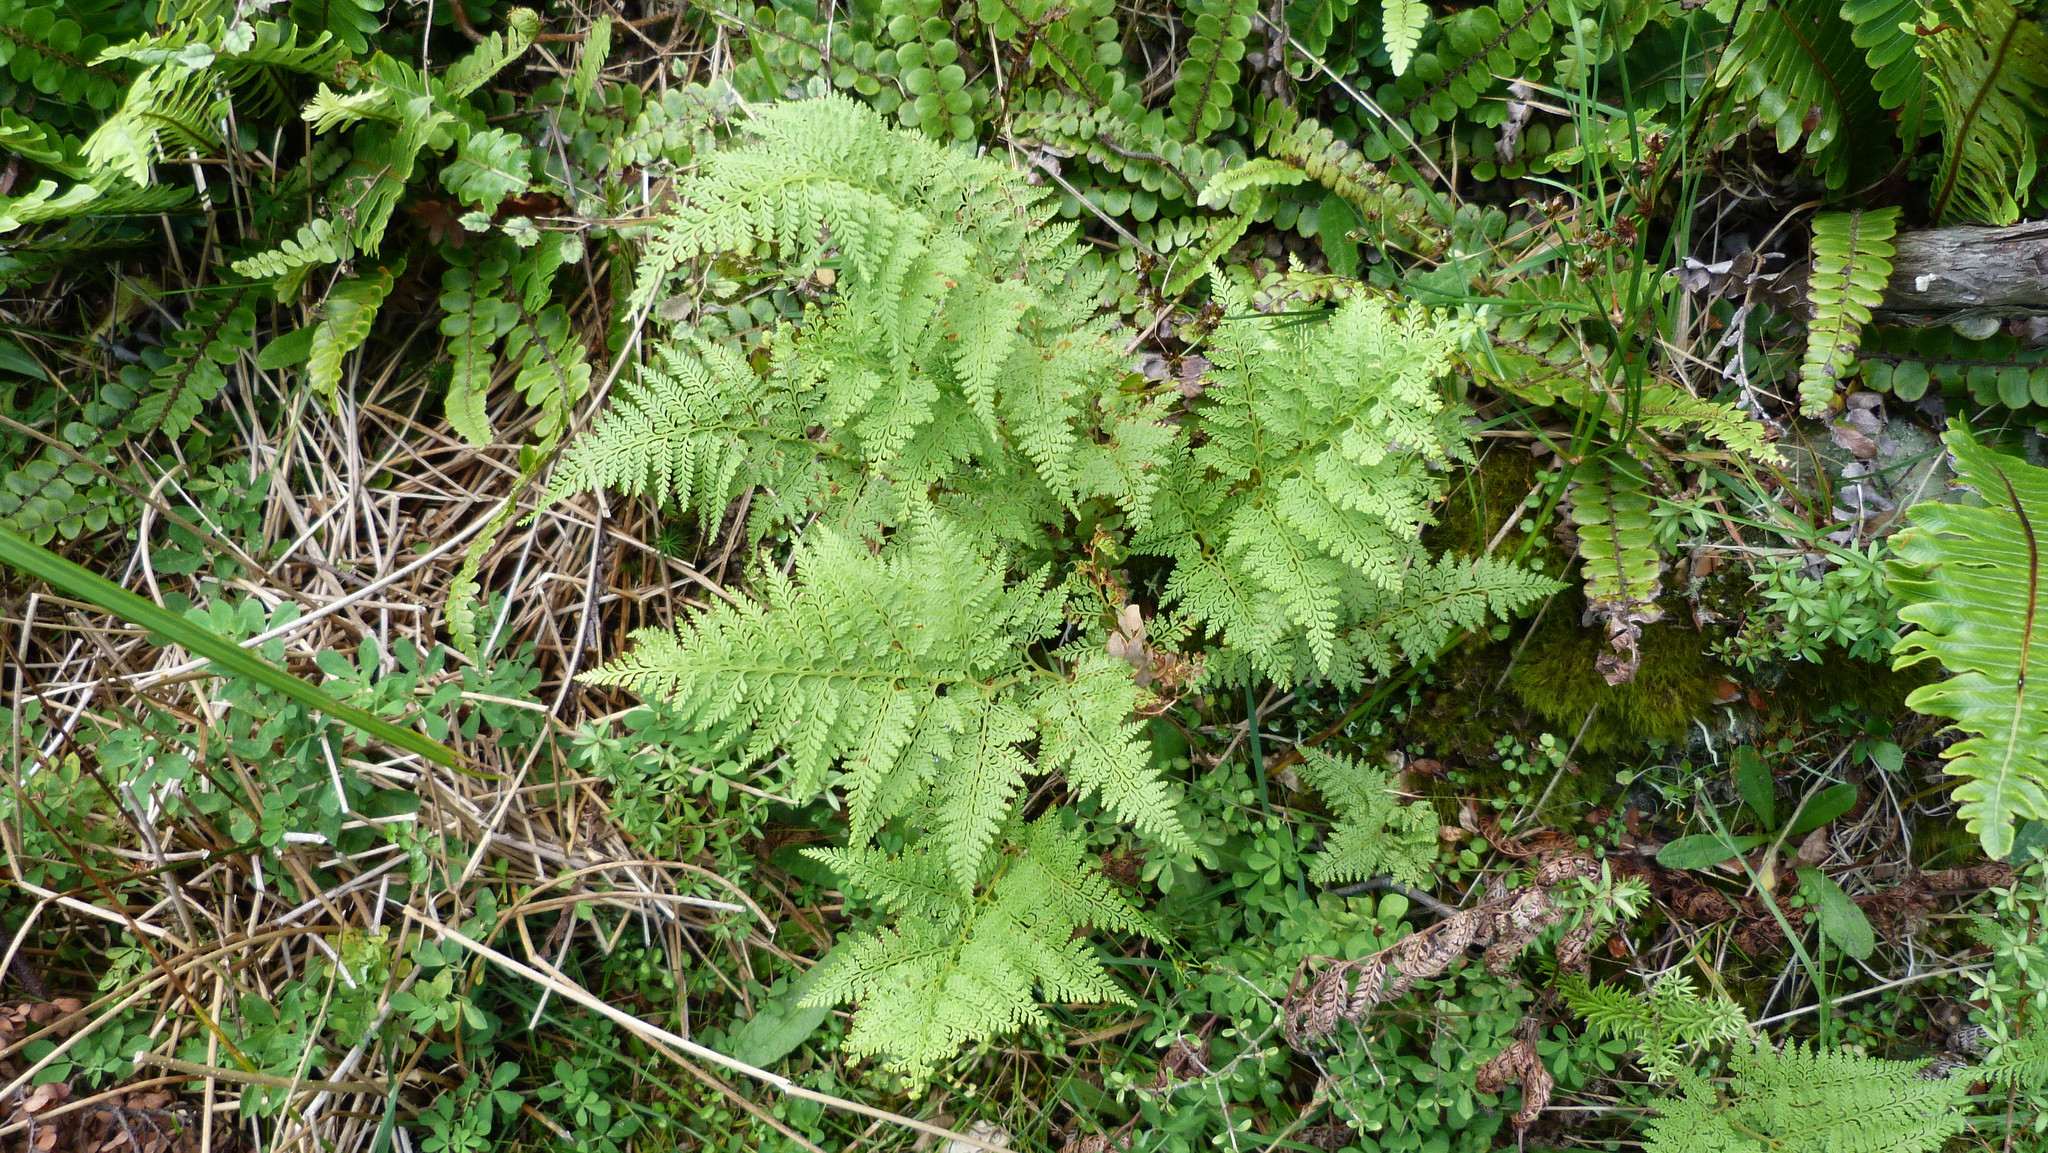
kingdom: Plantae
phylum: Tracheophyta
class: Polypodiopsida
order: Polypodiales
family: Dennstaedtiaceae
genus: Paesia
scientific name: Paesia scaberula
